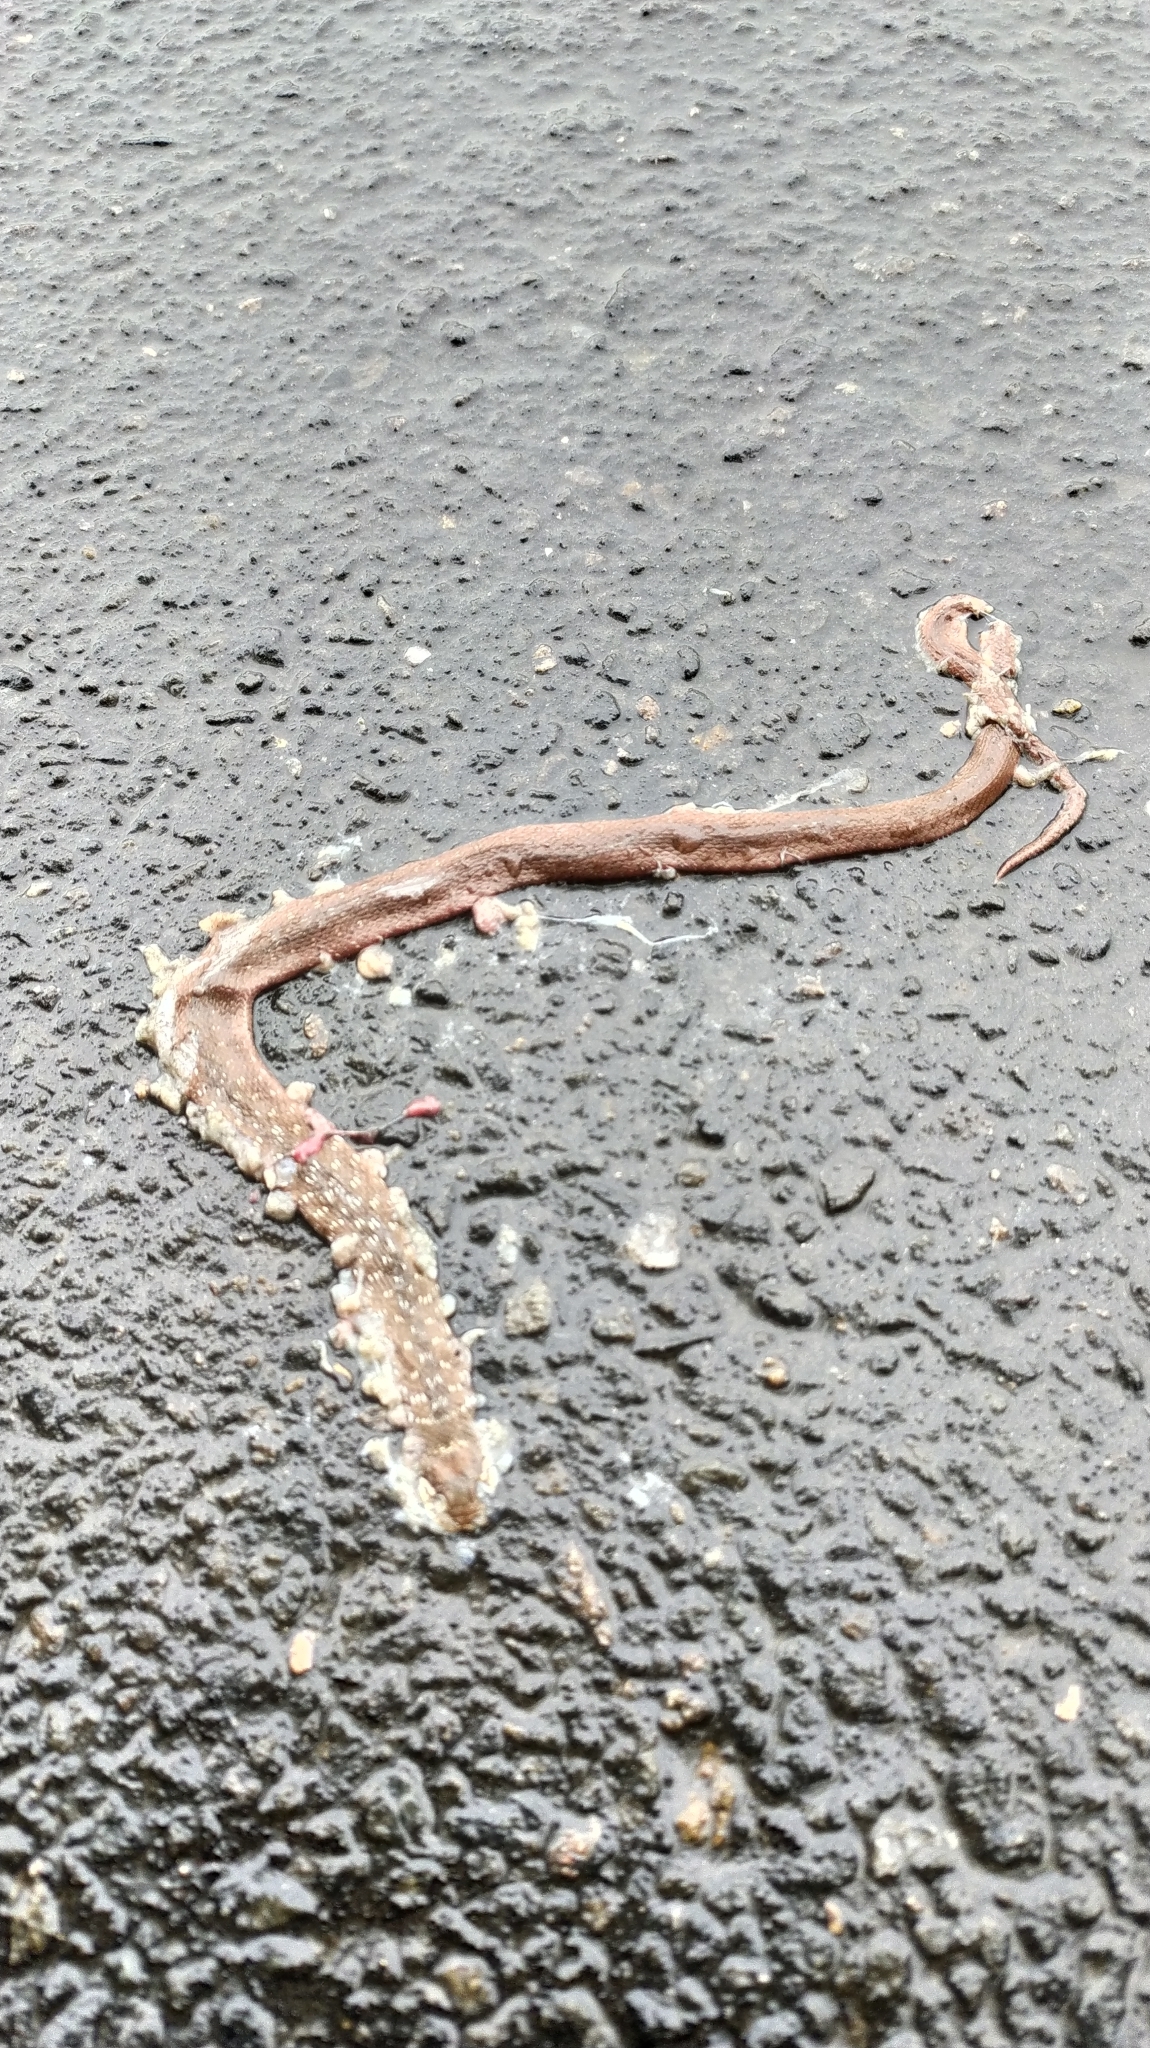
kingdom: Animalia
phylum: Chordata
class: Squamata
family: Colubridae
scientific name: Colubridae
